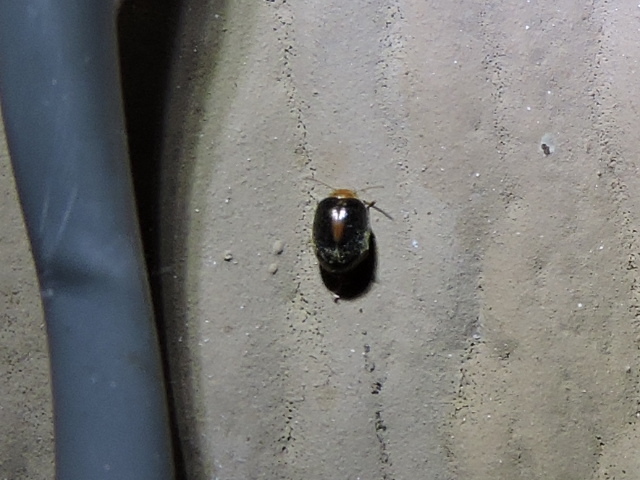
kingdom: Animalia
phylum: Arthropoda
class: Insecta
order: Coleoptera
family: Scirtidae
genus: Scirtes
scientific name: Scirtes orbiculatus
